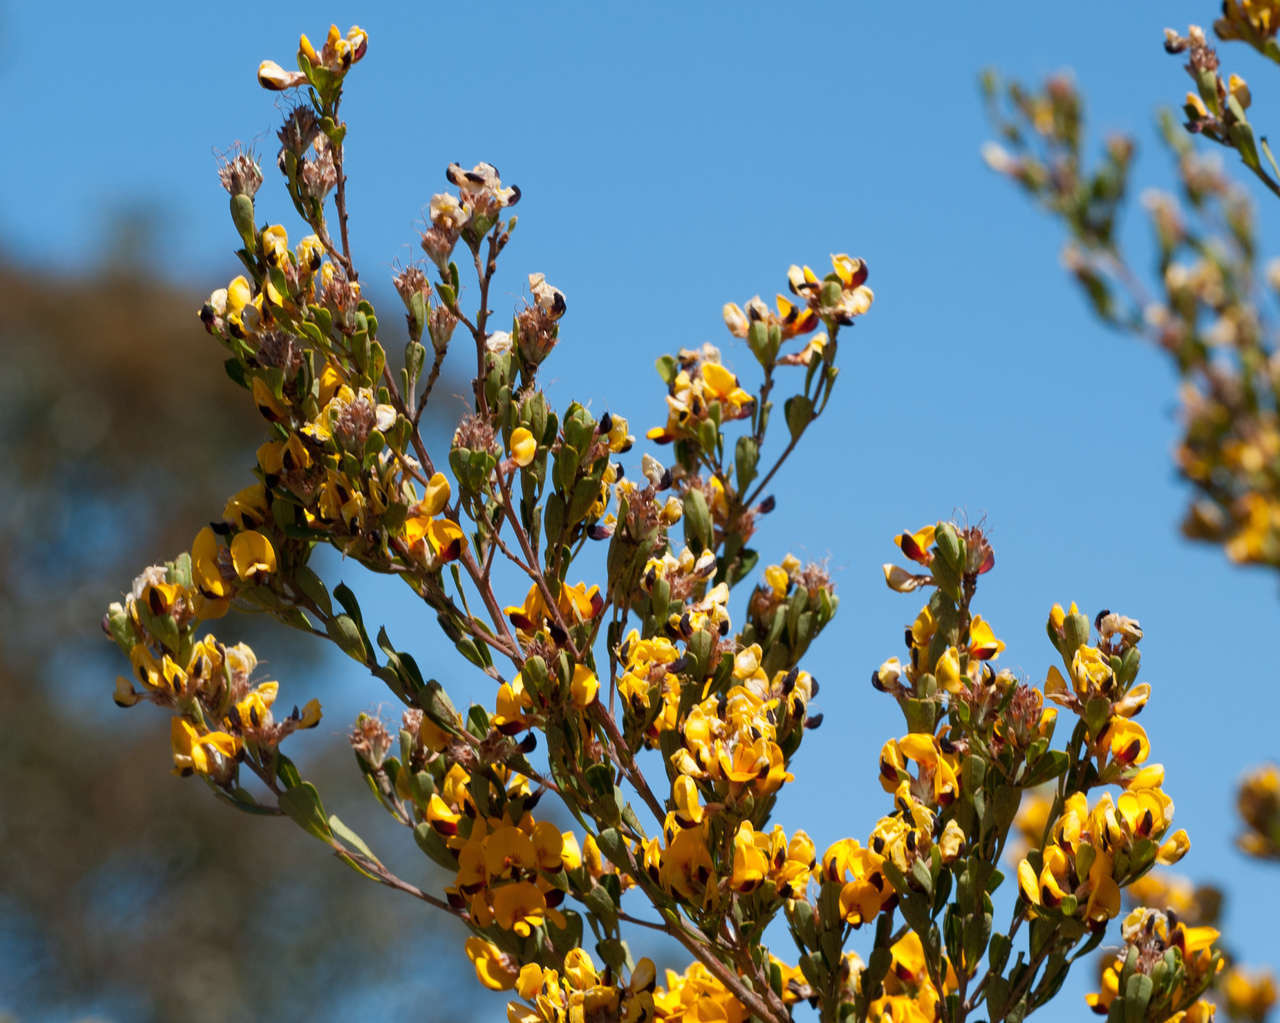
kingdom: Plantae
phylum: Tracheophyta
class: Magnoliopsida
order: Fabales
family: Fabaceae
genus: Pultenaea
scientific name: Pultenaea daphnoides
